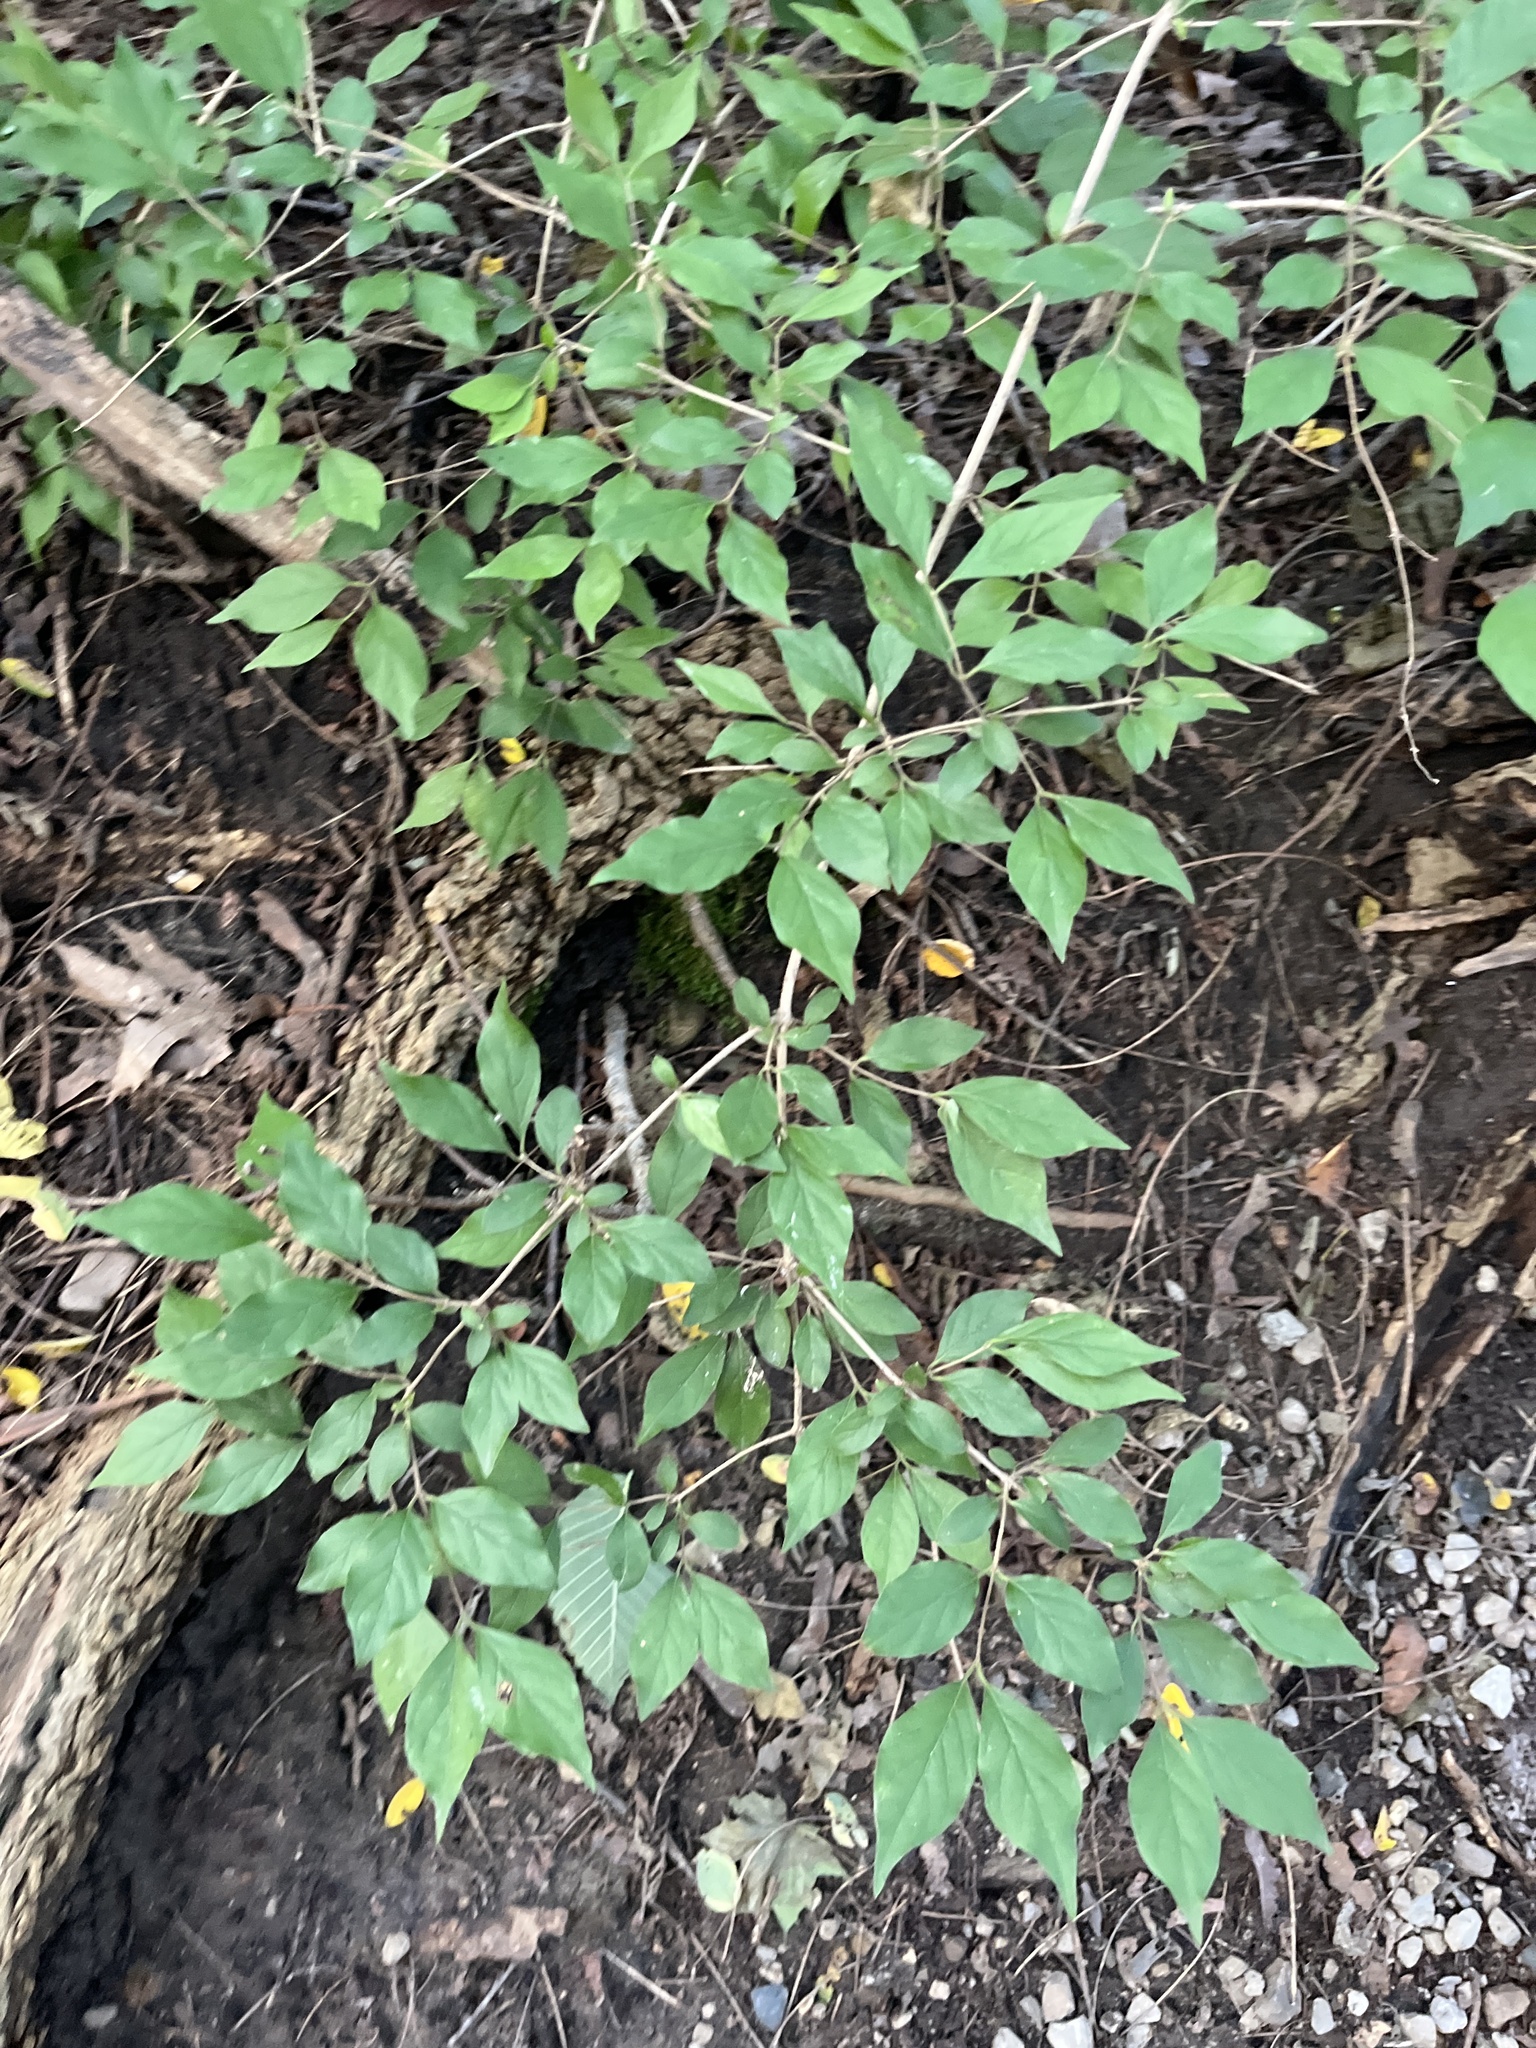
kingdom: Plantae
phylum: Tracheophyta
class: Magnoliopsida
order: Dipsacales
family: Caprifoliaceae
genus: Lonicera
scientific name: Lonicera maackii
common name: Amur honeysuckle
